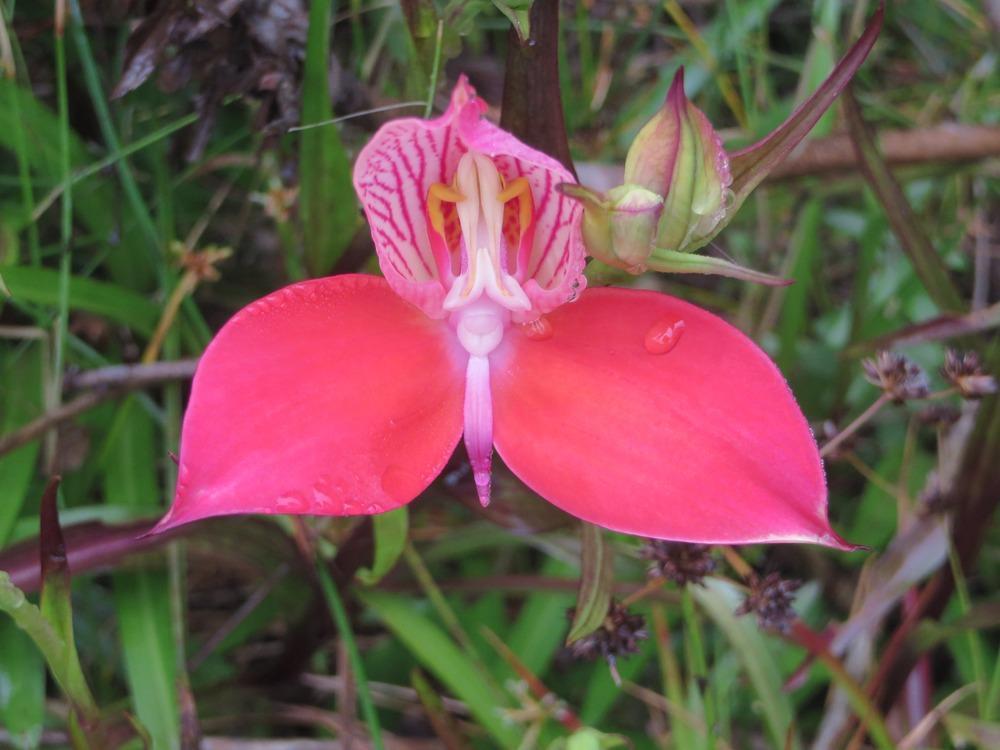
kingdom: Plantae
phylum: Tracheophyta
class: Liliopsida
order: Asparagales
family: Orchidaceae
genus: Disa
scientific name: Disa uniflora
